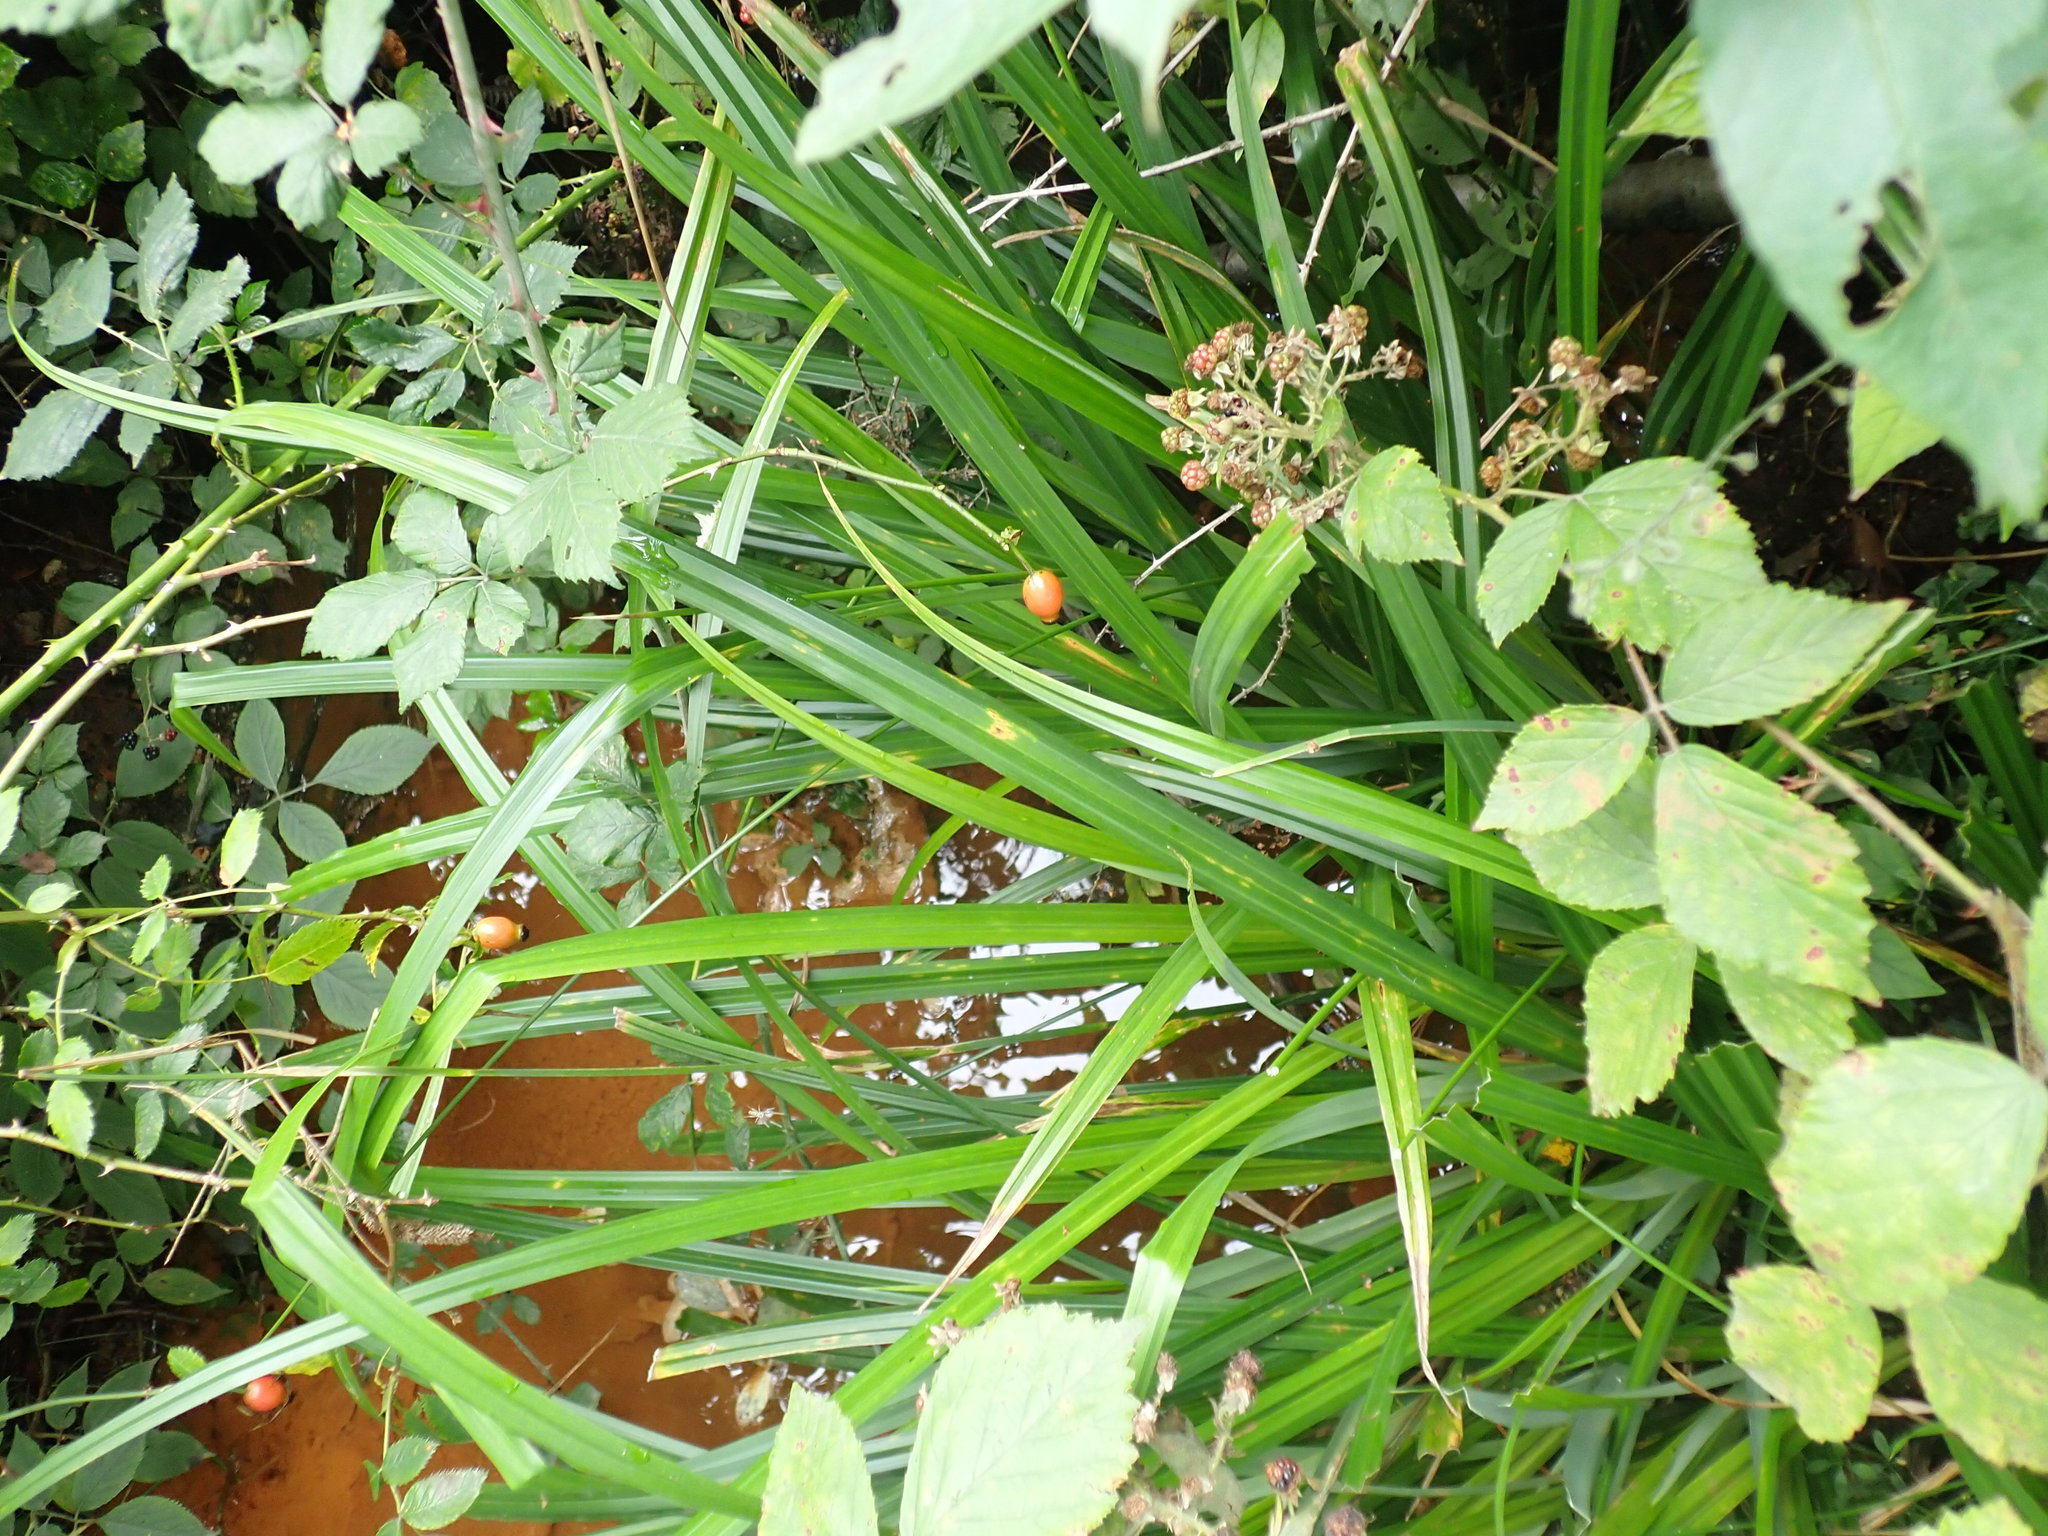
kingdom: Plantae
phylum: Tracheophyta
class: Liliopsida
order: Poales
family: Cyperaceae
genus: Carex
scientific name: Carex pendula
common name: Pendulous sedge
